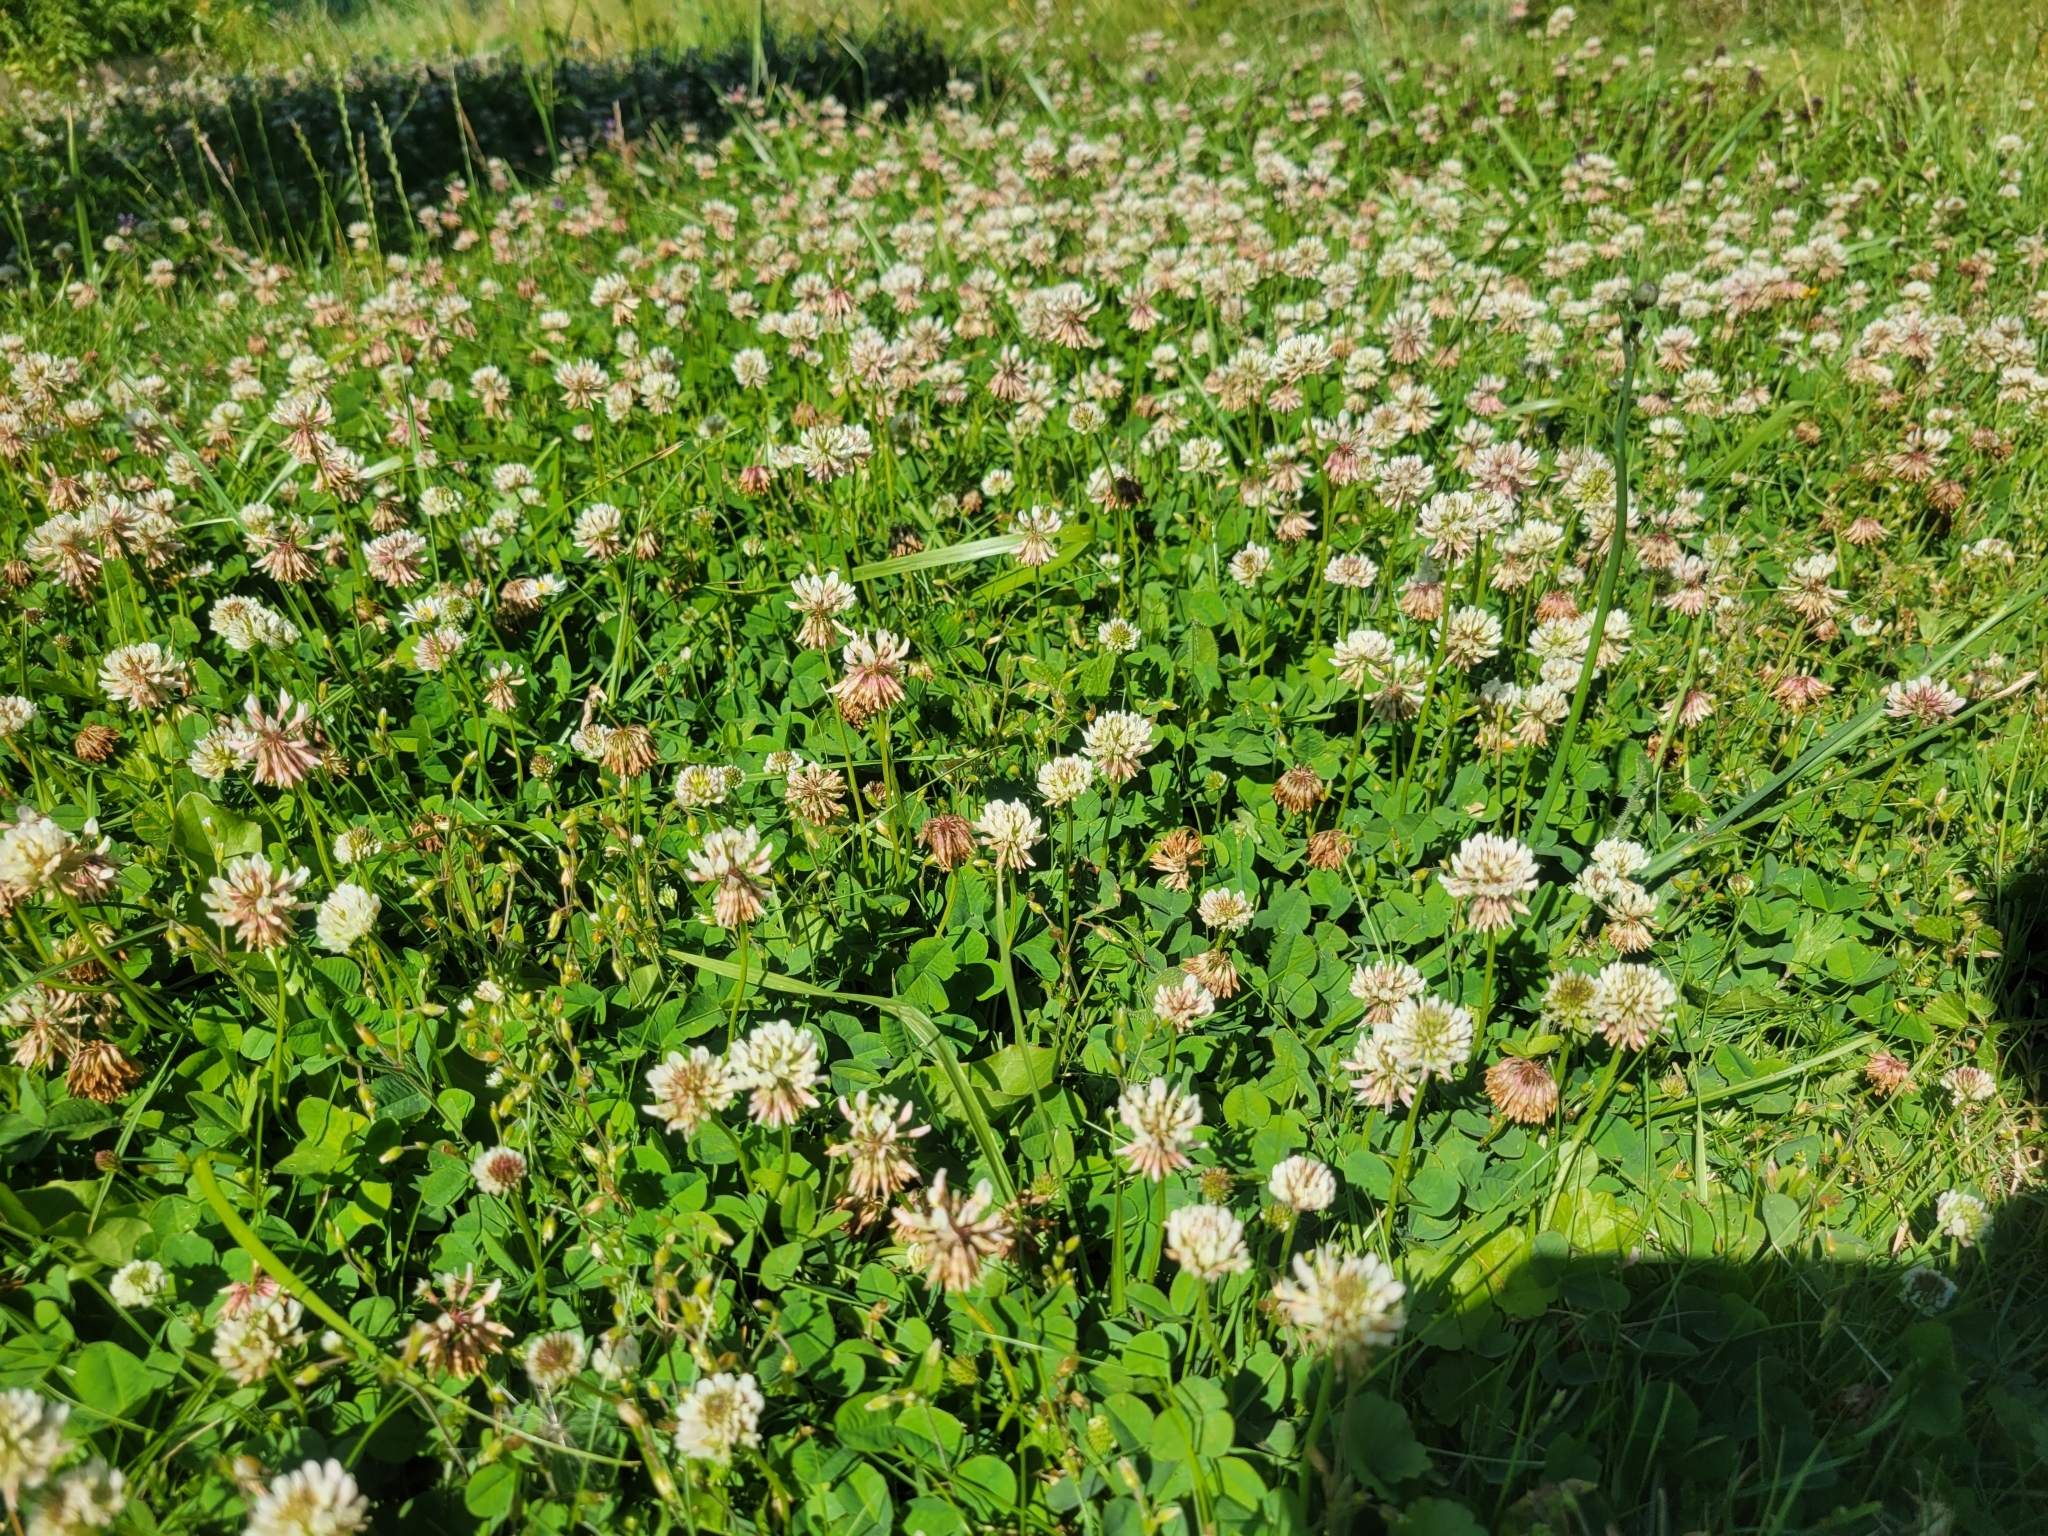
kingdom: Plantae
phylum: Tracheophyta
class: Magnoliopsida
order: Fabales
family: Fabaceae
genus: Trifolium
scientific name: Trifolium repens
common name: White clover
